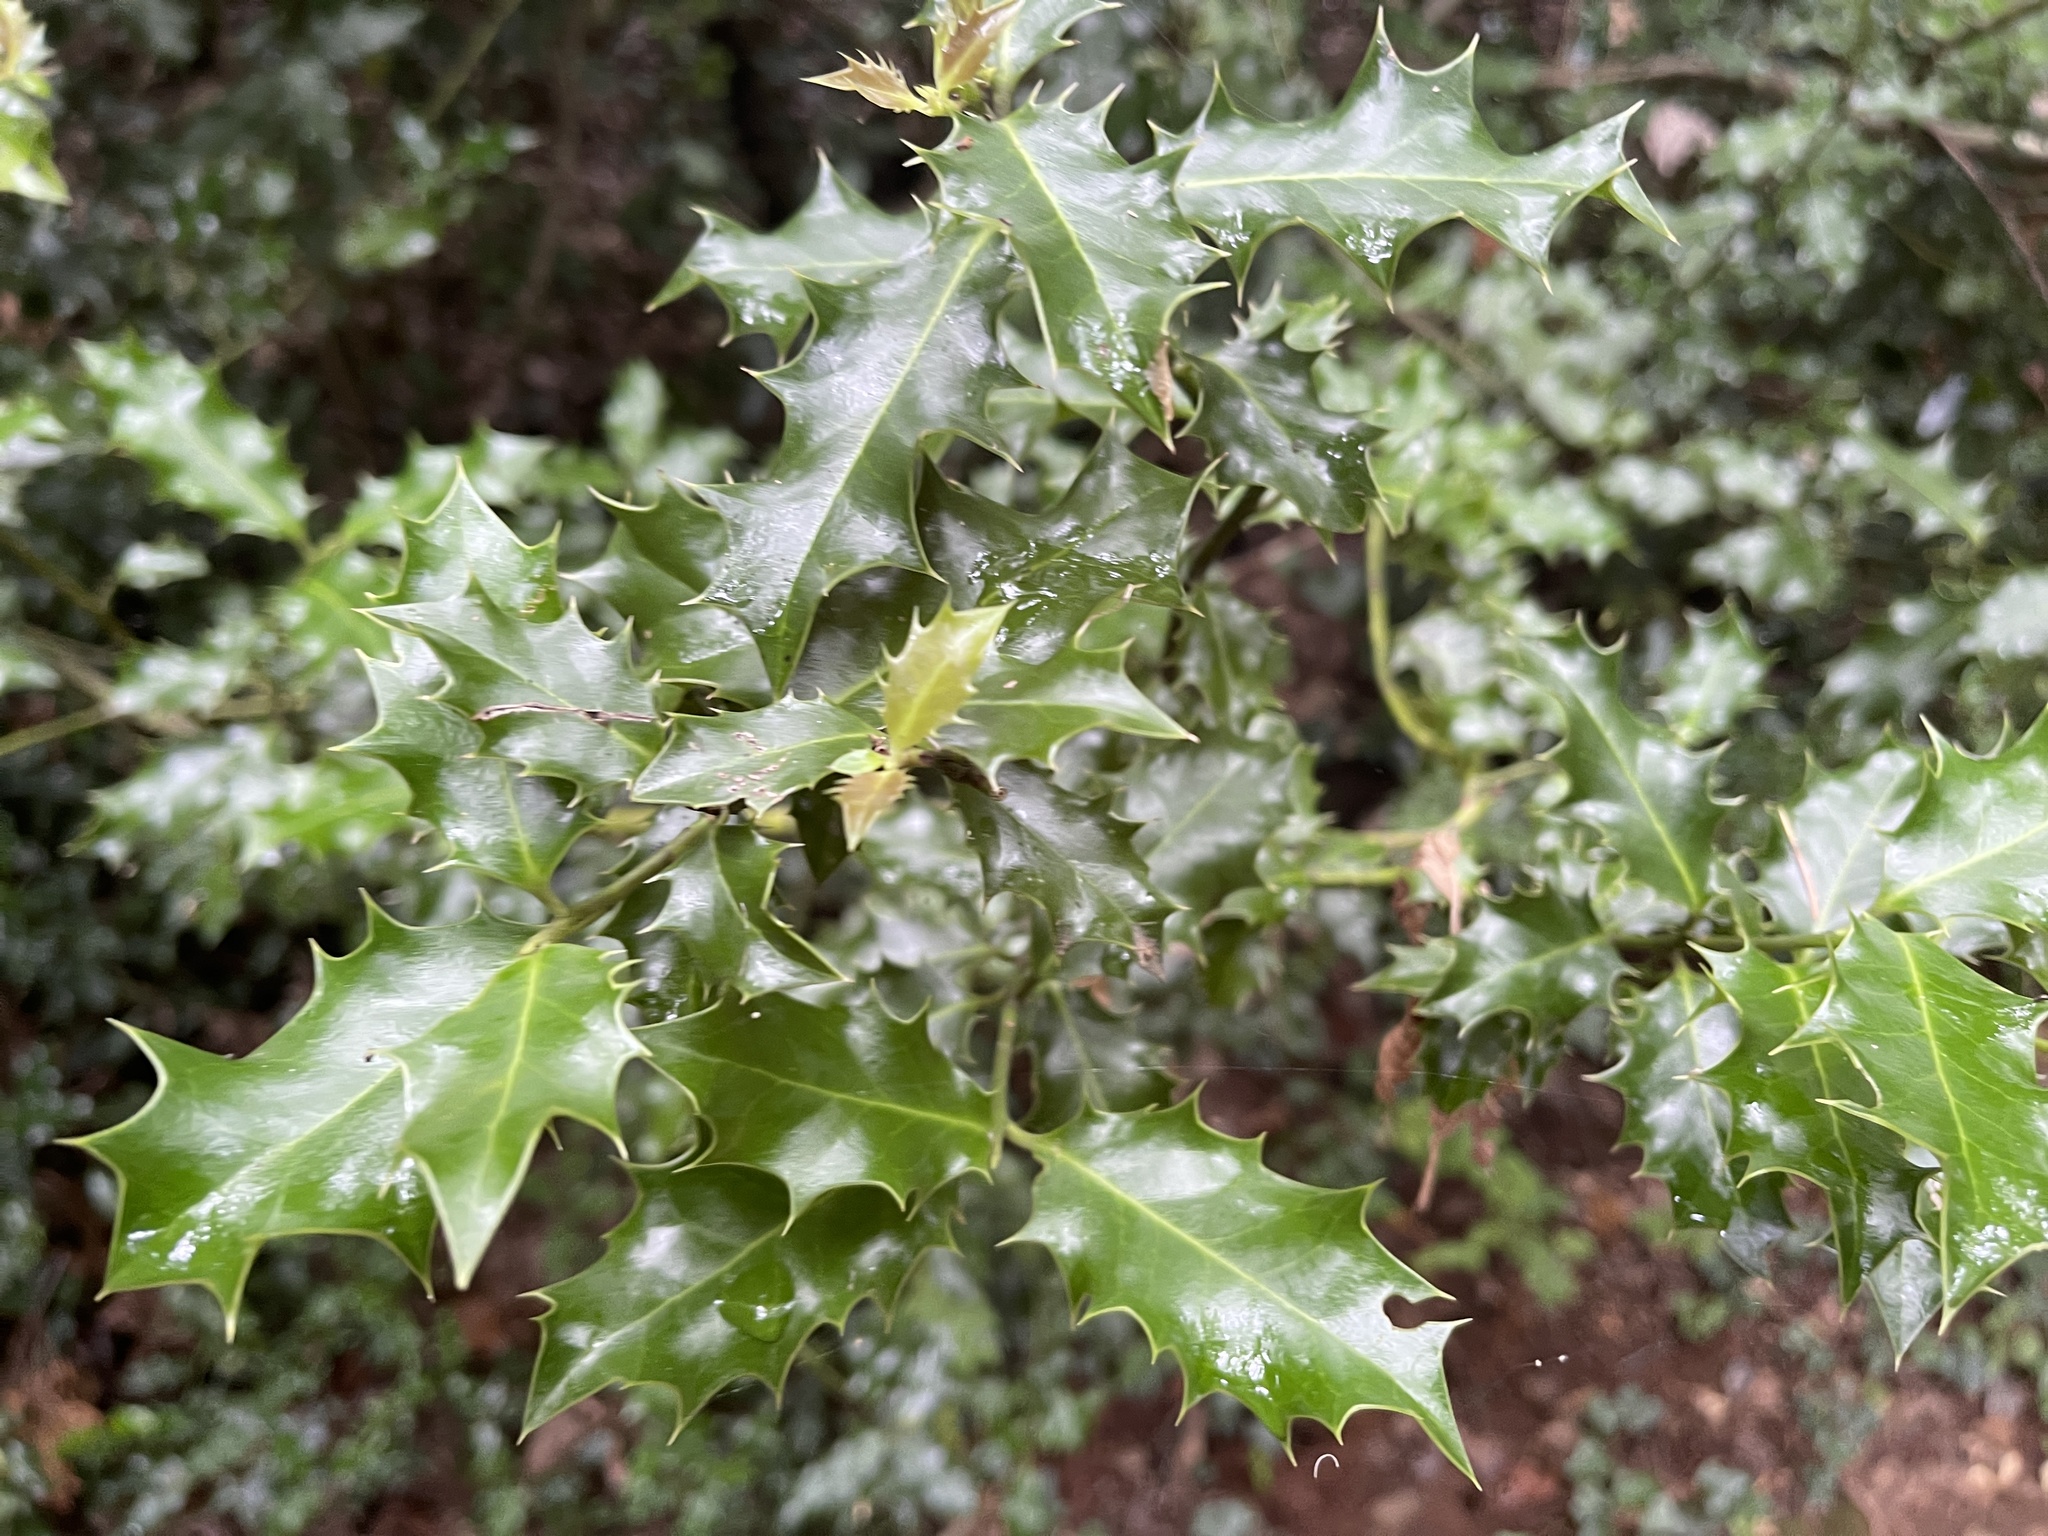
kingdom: Plantae
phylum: Tracheophyta
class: Magnoliopsida
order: Aquifoliales
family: Aquifoliaceae
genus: Ilex
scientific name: Ilex aquifolium
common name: English holly
